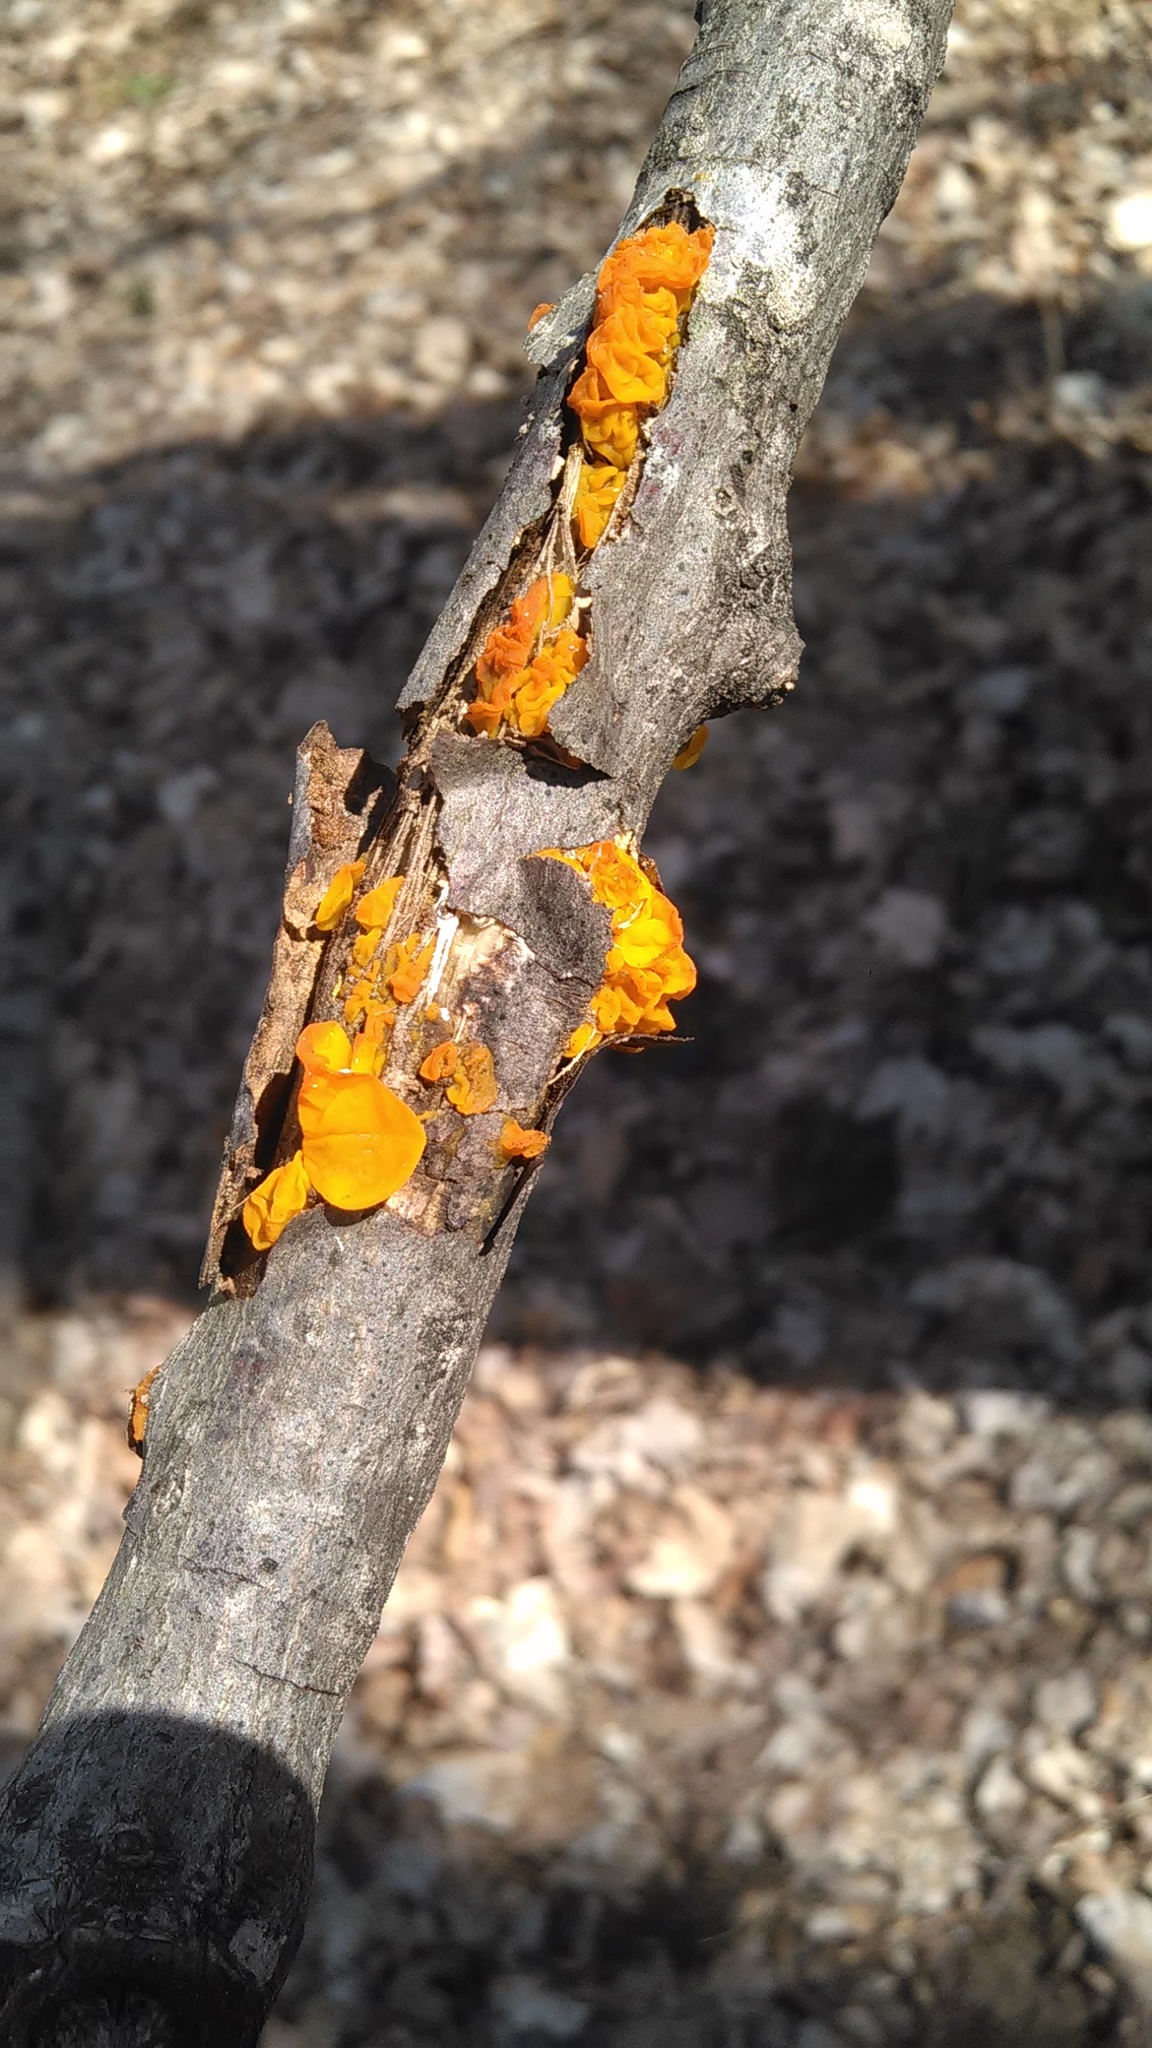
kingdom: Fungi
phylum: Basidiomycota
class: Tremellomycetes
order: Tremellales
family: Naemateliaceae
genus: Naematelia
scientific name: Naematelia aurantia
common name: Golden ear
